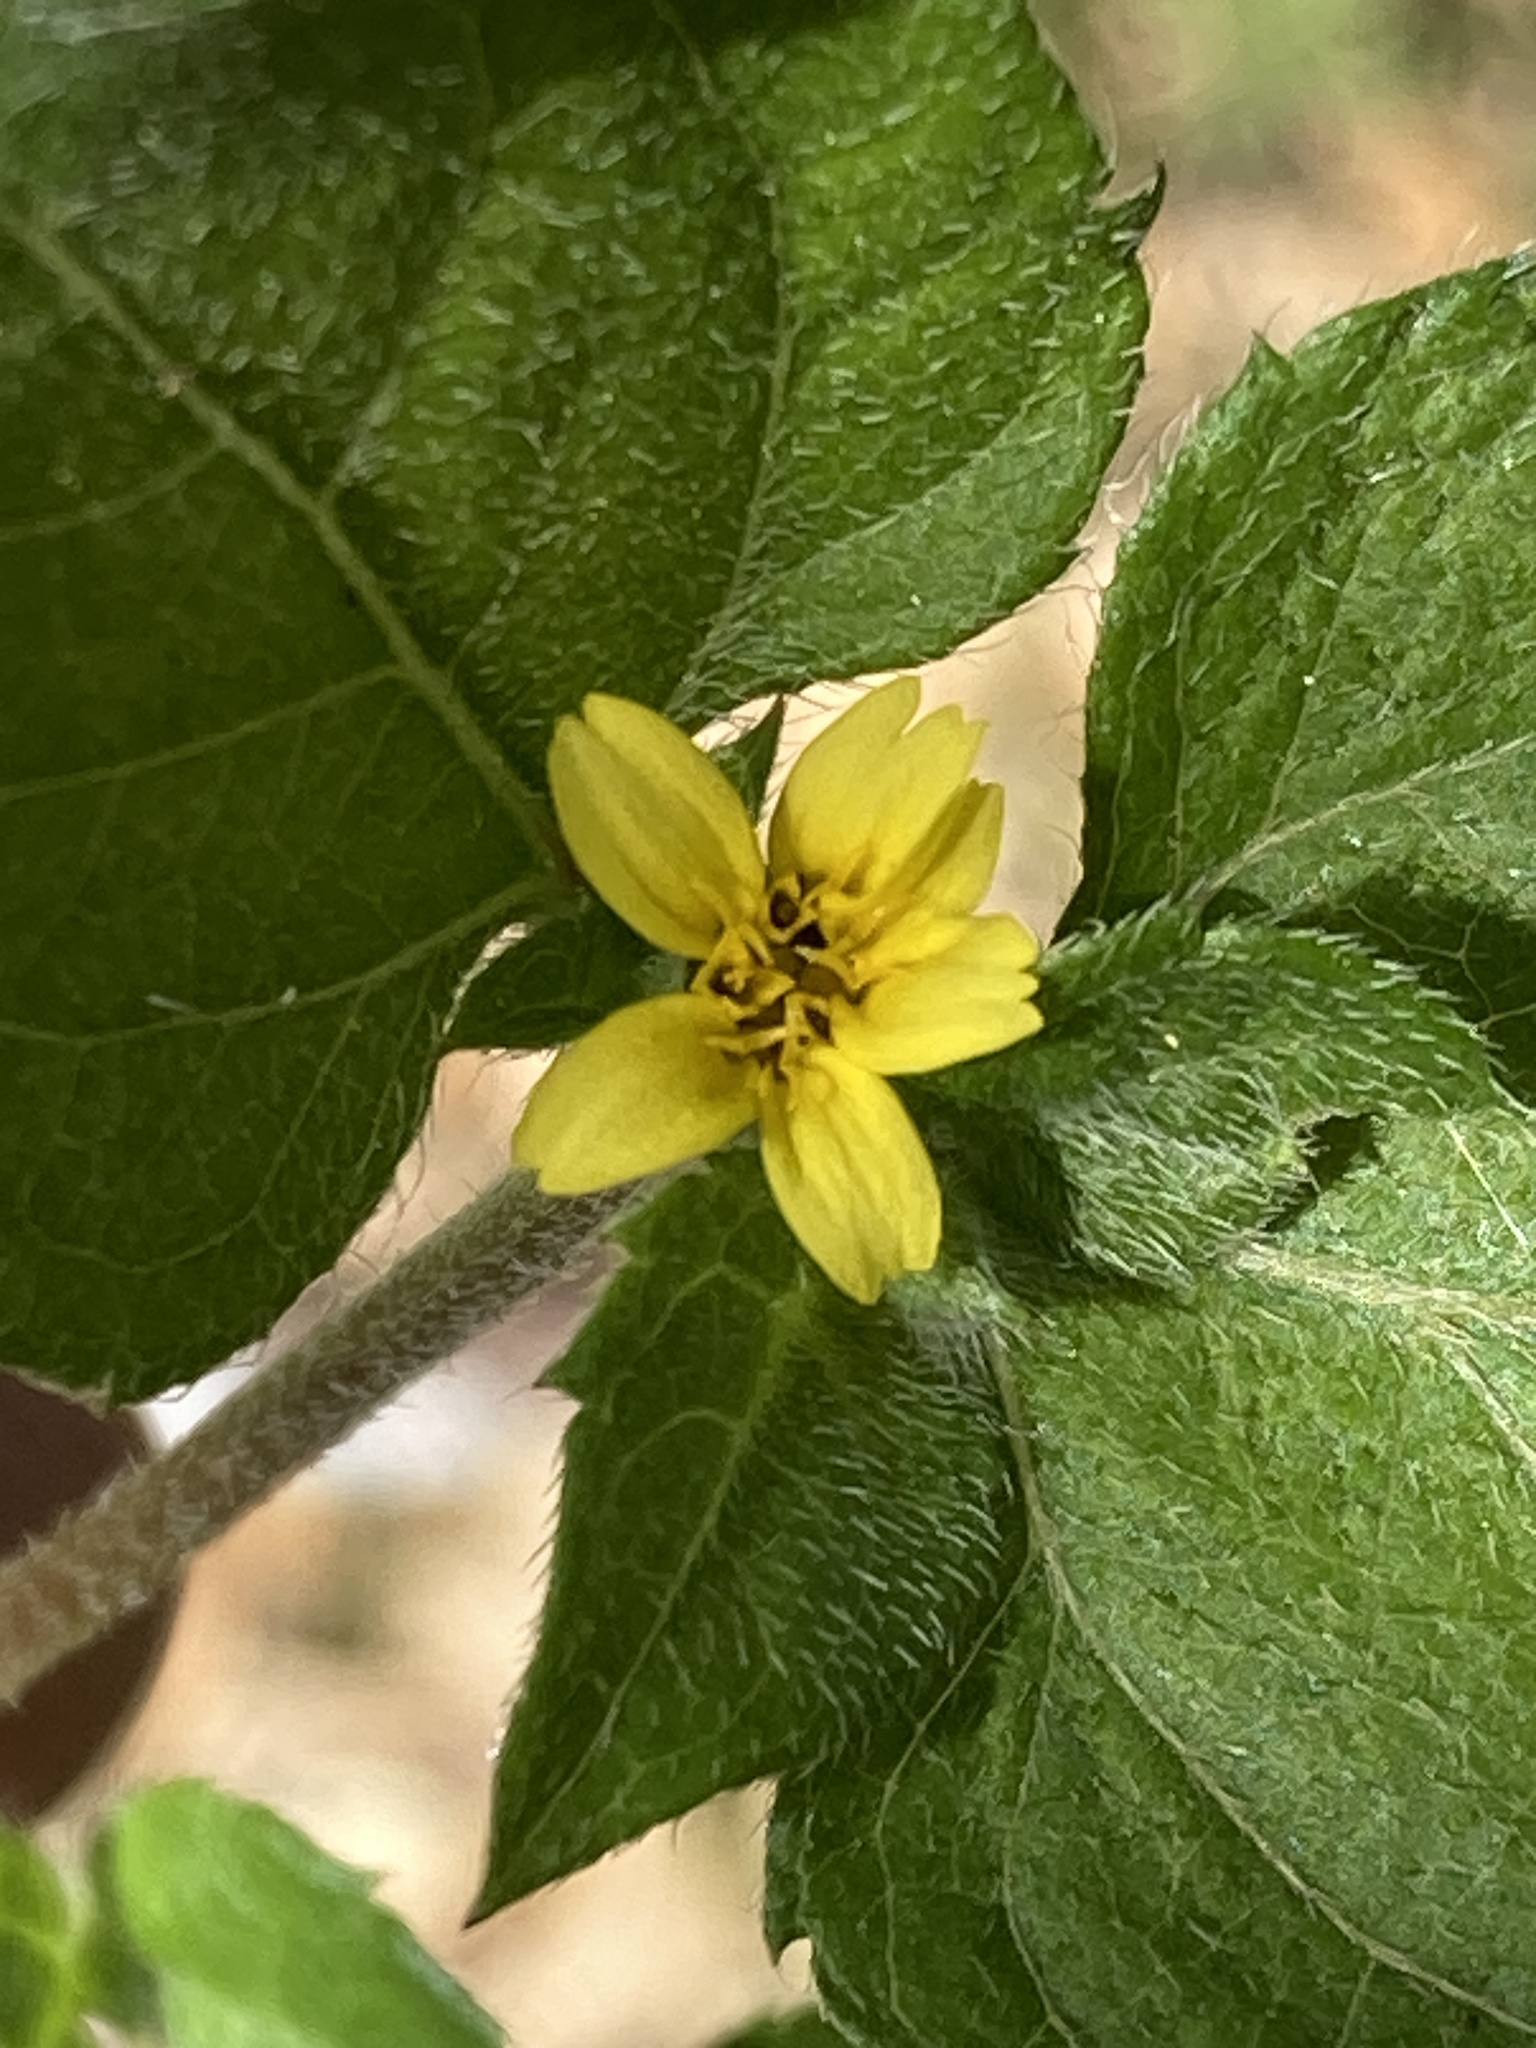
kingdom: Plantae
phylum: Tracheophyta
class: Magnoliopsida
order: Asterales
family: Asteraceae
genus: Calyptocarpus
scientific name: Calyptocarpus vialis
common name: Straggler daisy
